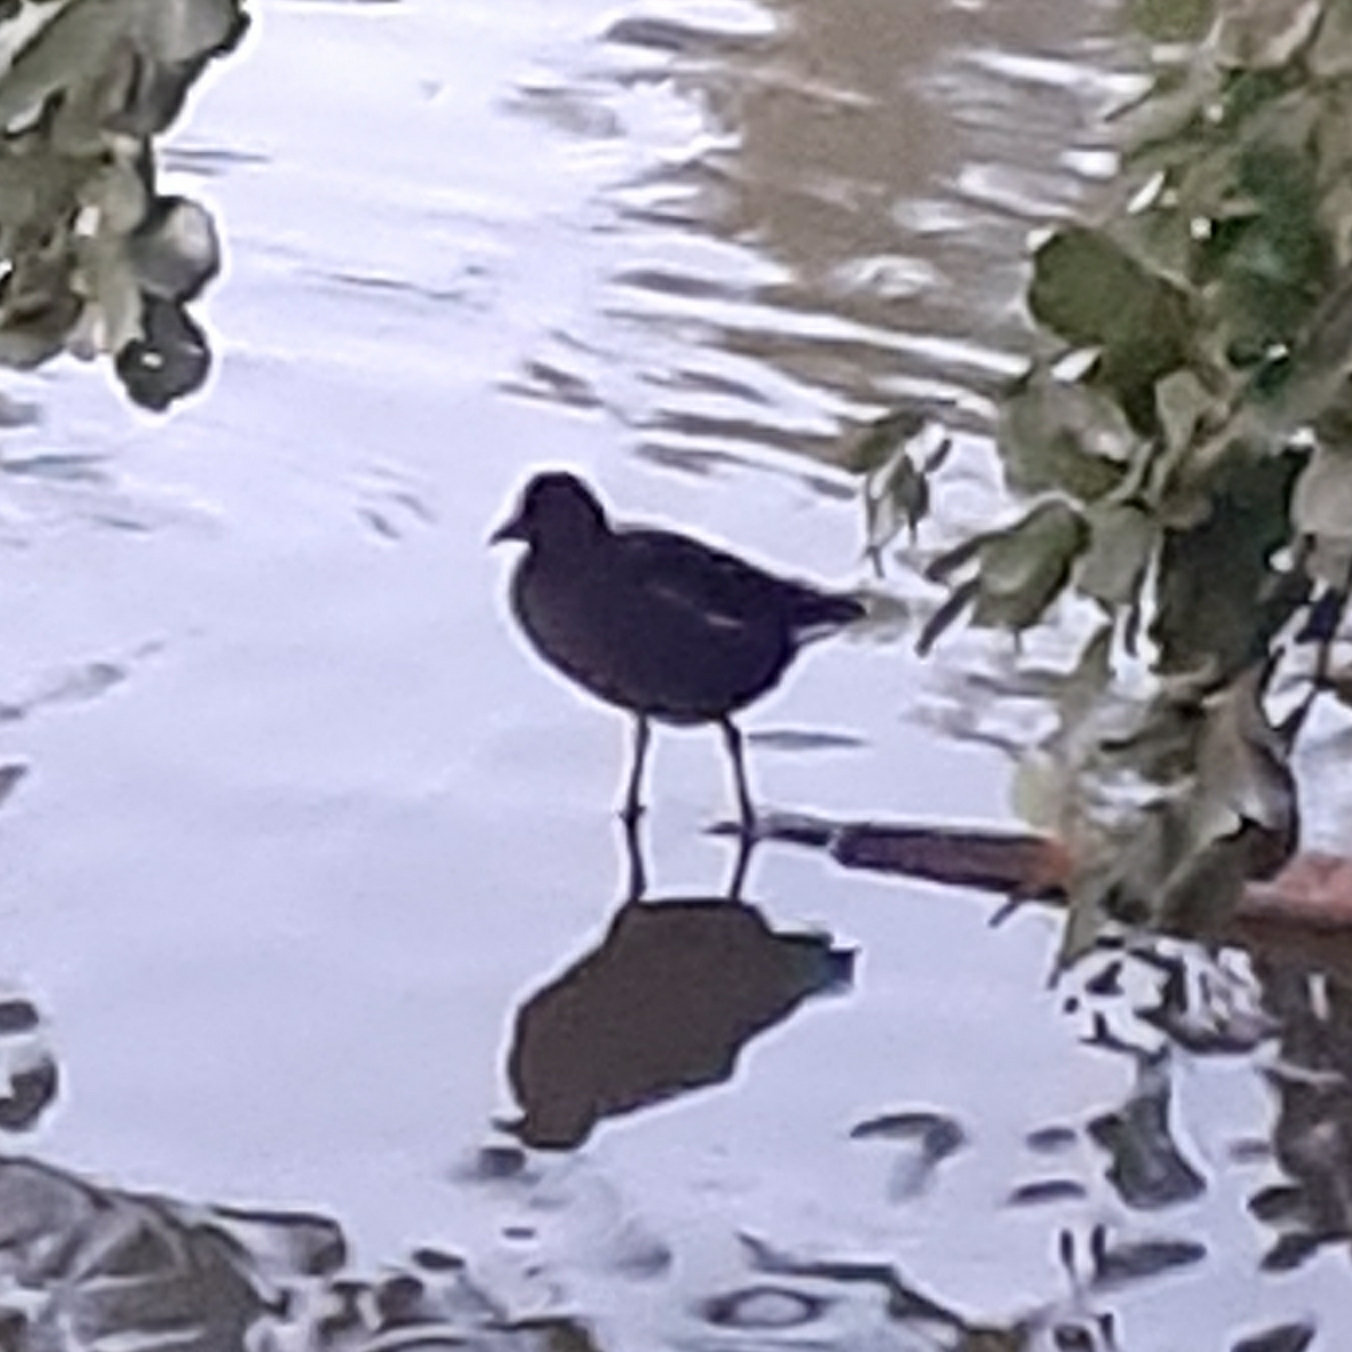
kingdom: Animalia
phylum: Chordata
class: Aves
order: Gruiformes
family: Rallidae
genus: Gallinula
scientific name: Gallinula chloropus
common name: Common moorhen
